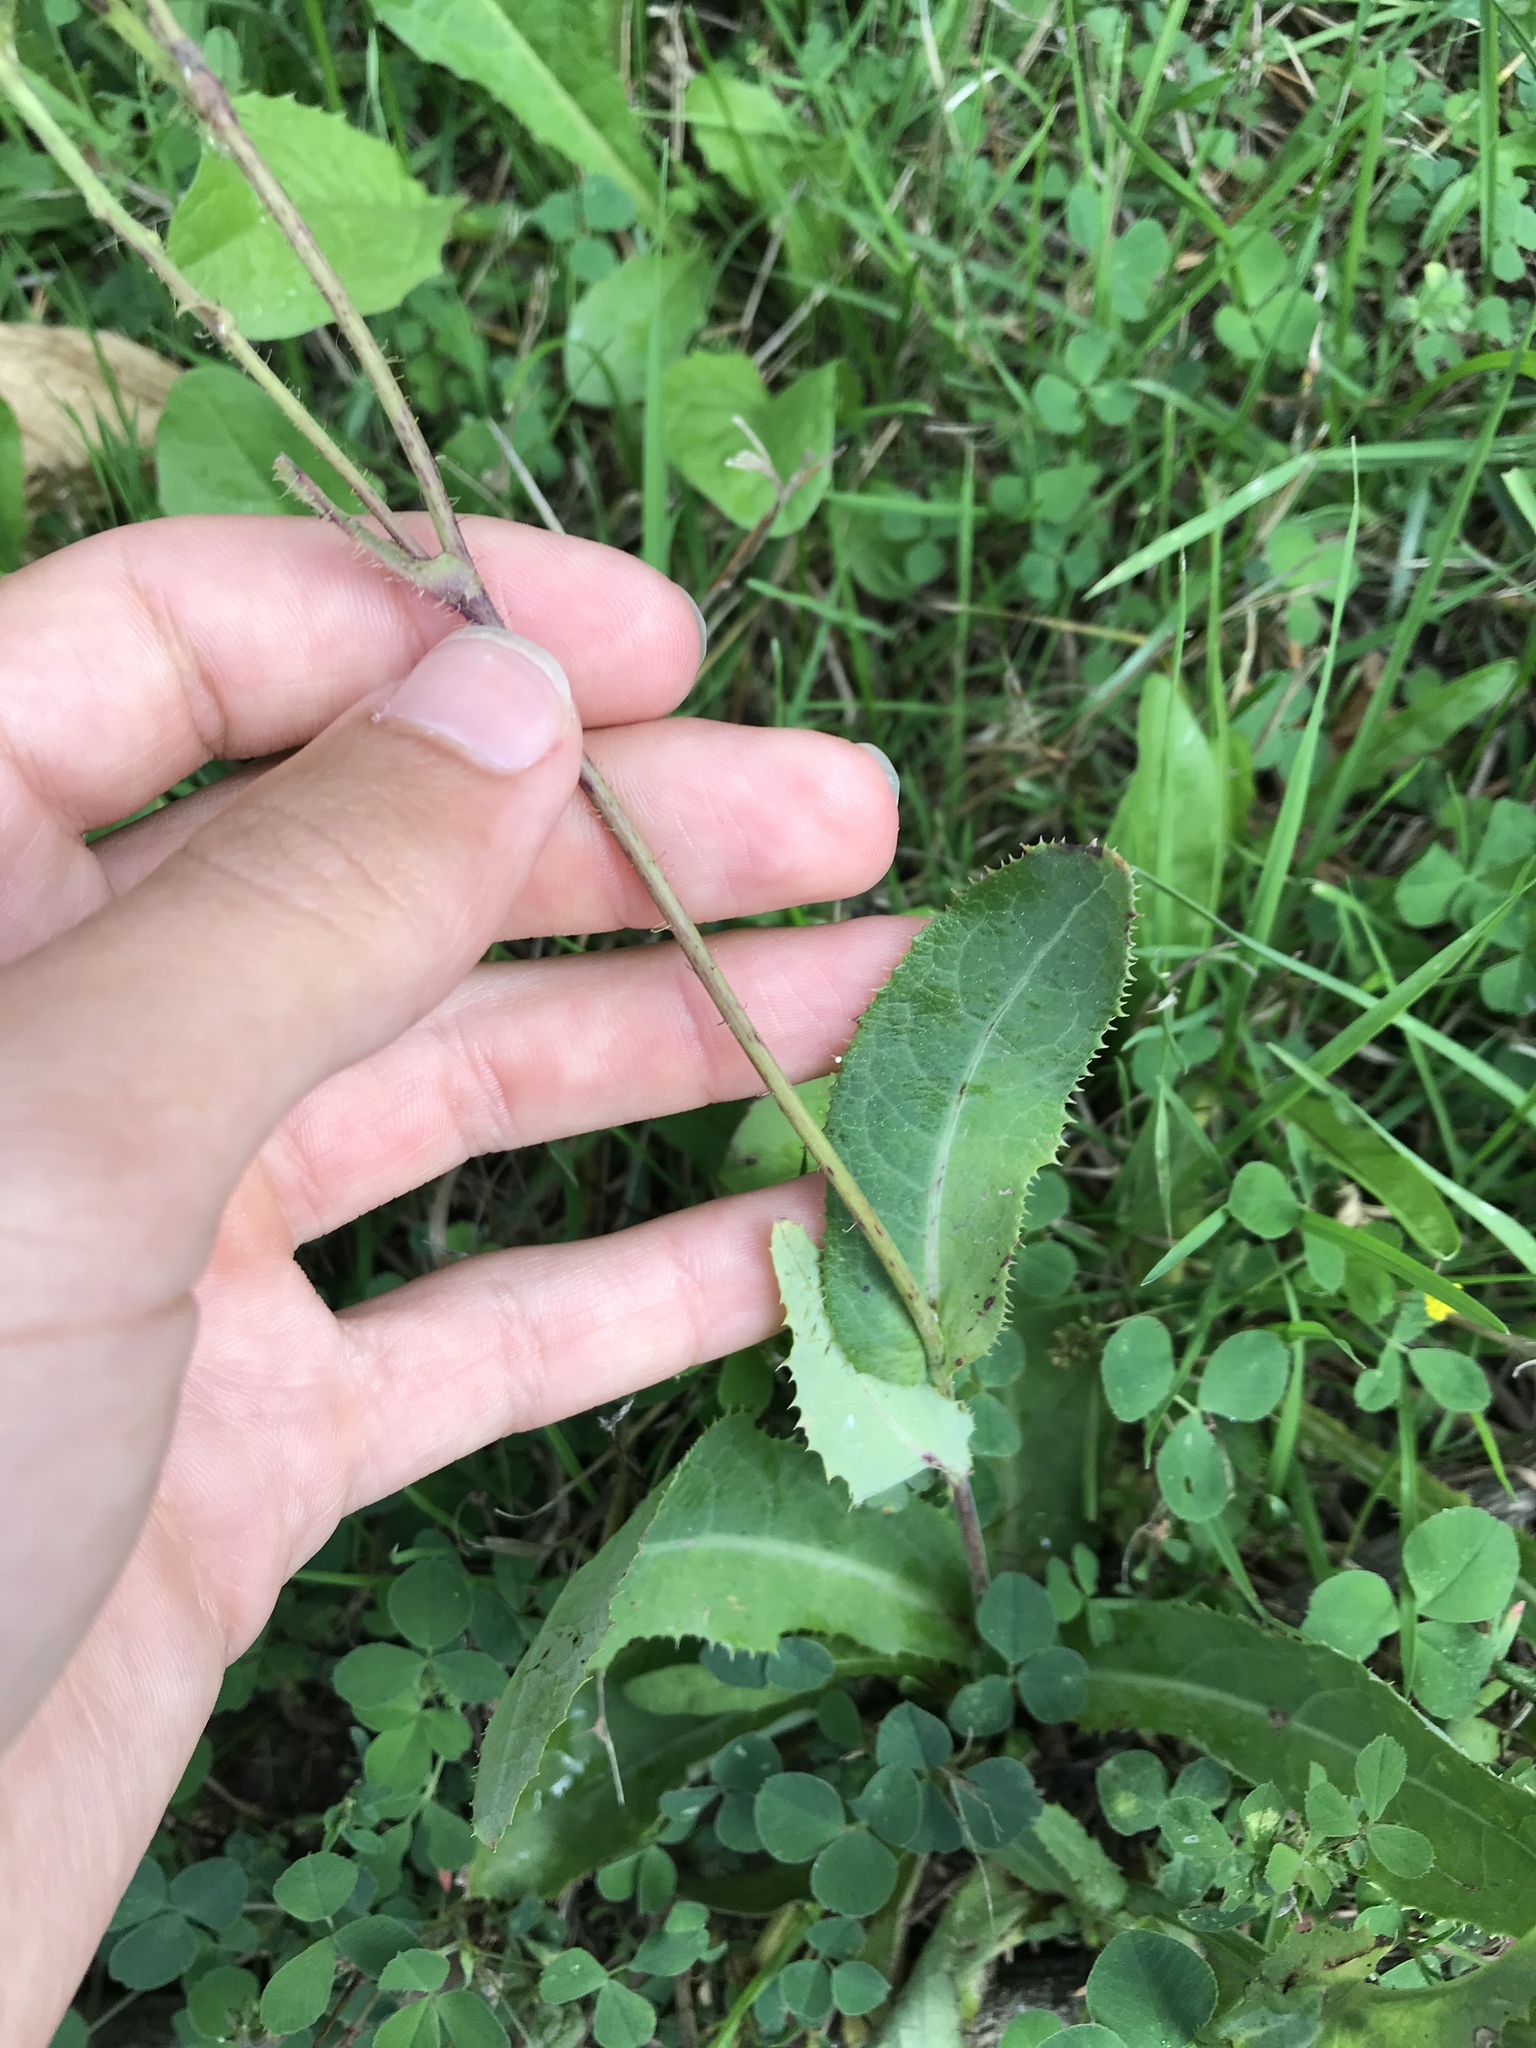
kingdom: Plantae
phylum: Tracheophyta
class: Magnoliopsida
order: Asterales
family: Asteraceae
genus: Sonchus
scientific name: Sonchus arvensis
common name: Perennial sow-thistle
